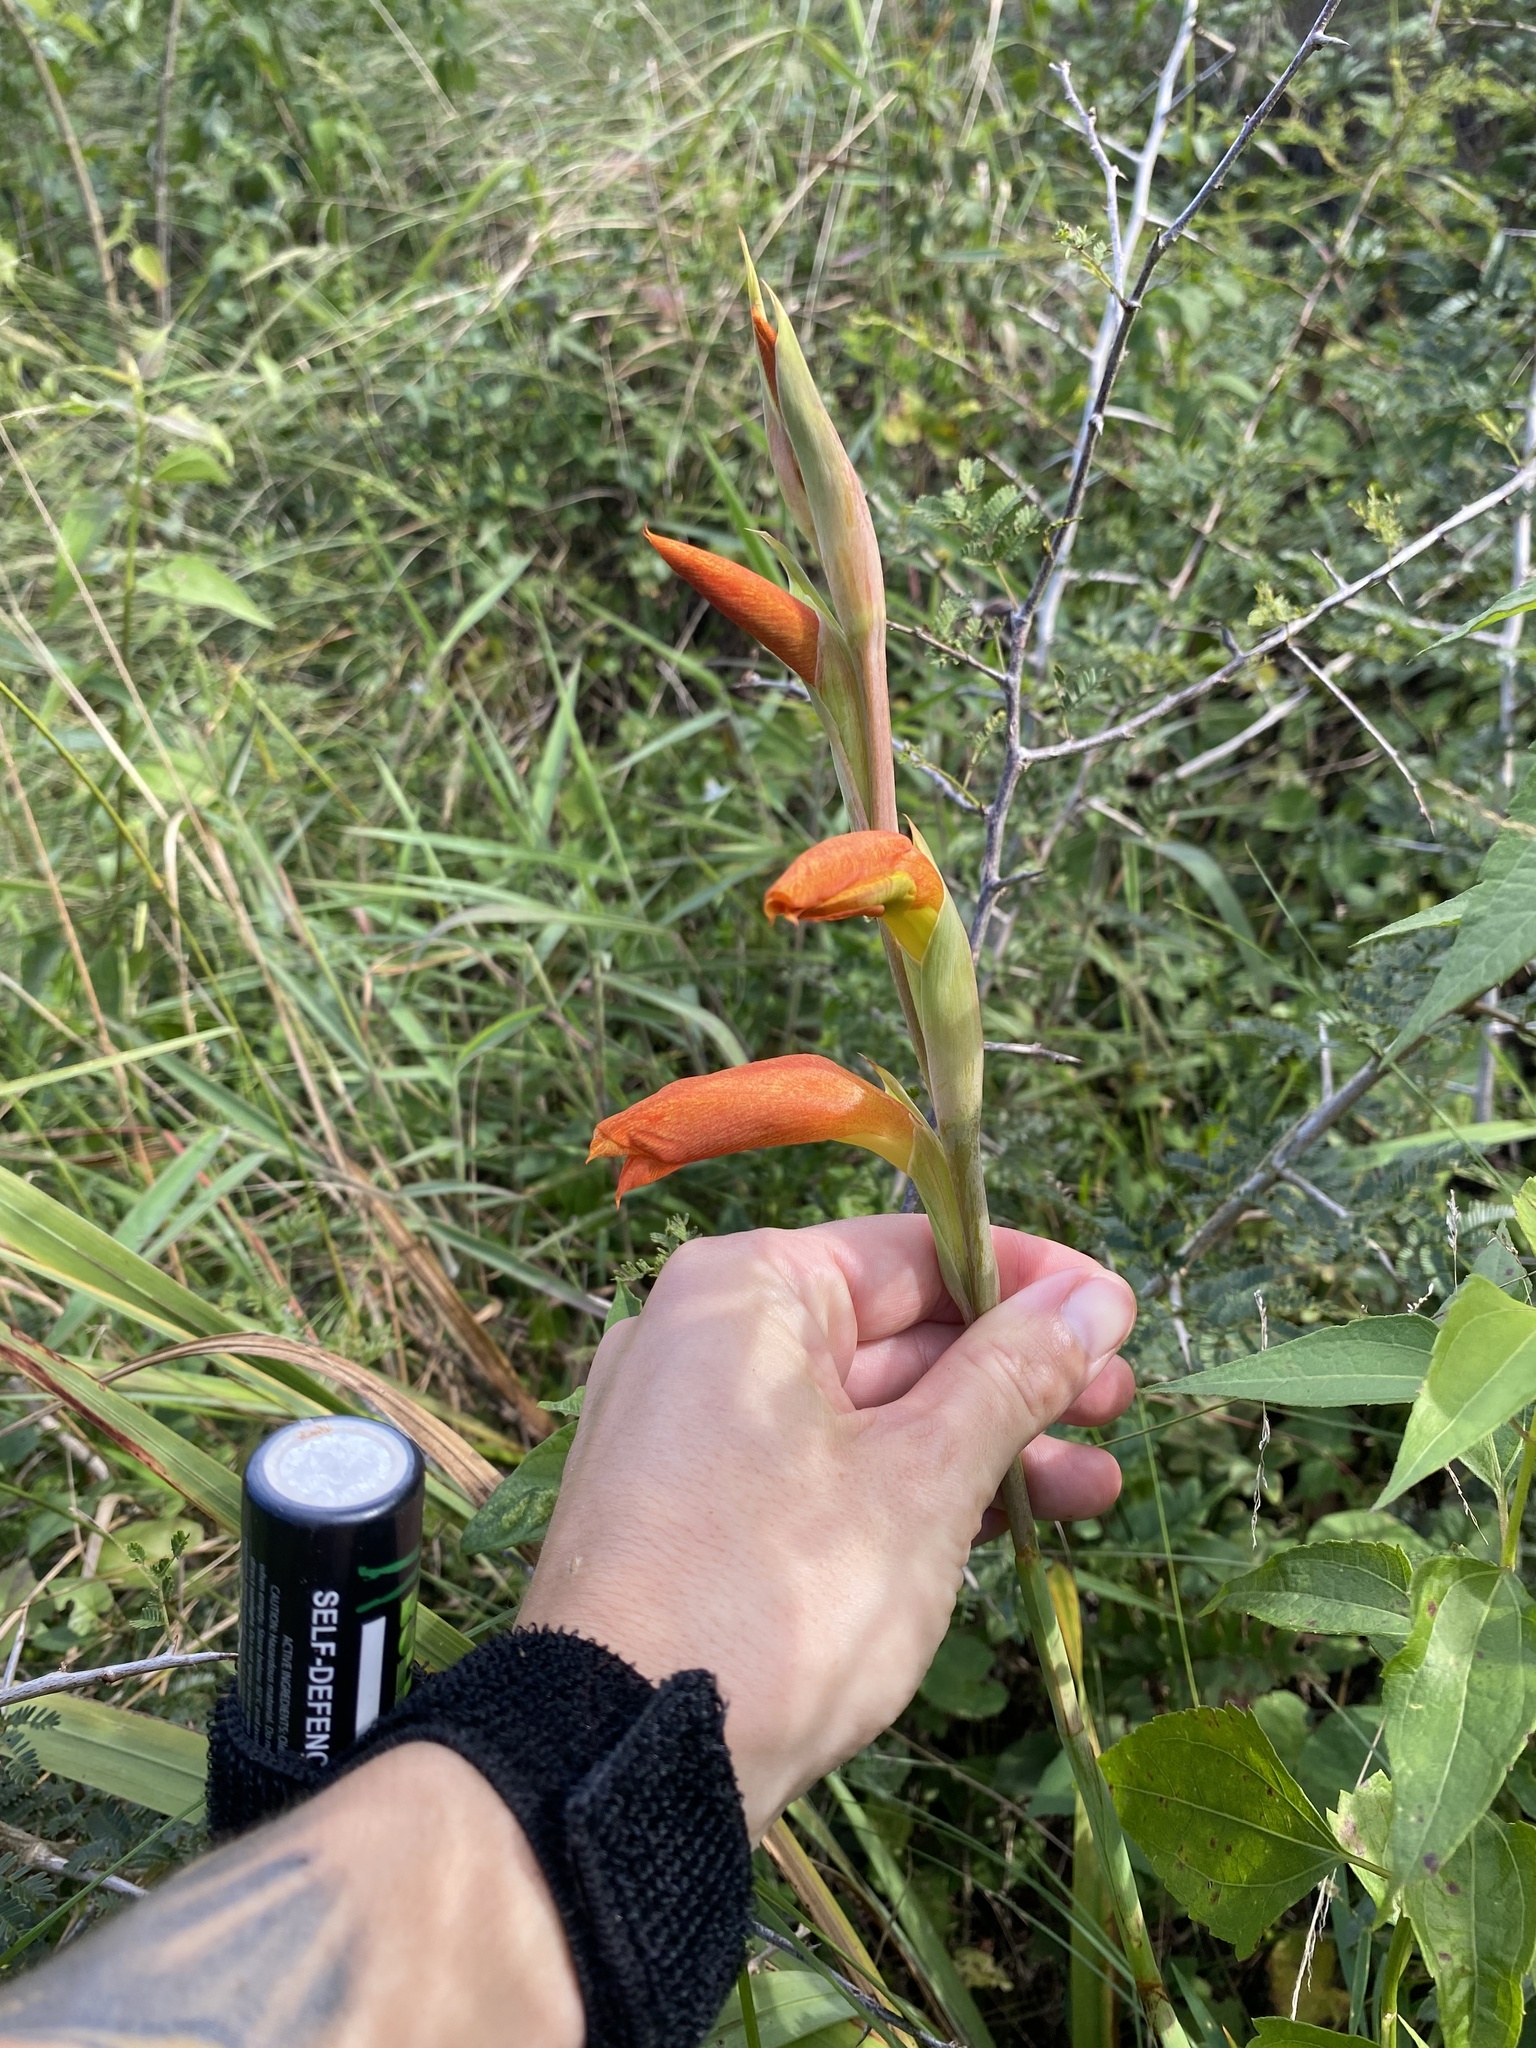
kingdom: Plantae
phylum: Tracheophyta
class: Liliopsida
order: Asparagales
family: Iridaceae
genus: Gladiolus
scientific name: Gladiolus dalenii
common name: Cornflag
